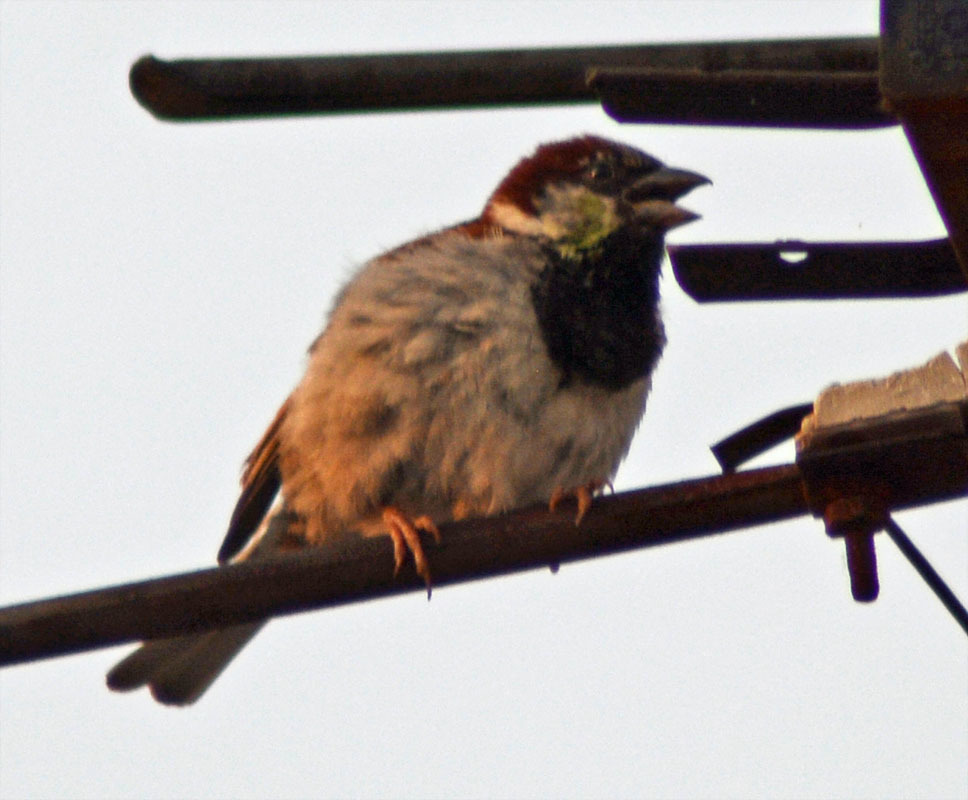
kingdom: Animalia
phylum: Chordata
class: Aves
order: Passeriformes
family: Passeridae
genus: Passer
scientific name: Passer domesticus
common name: House sparrow
